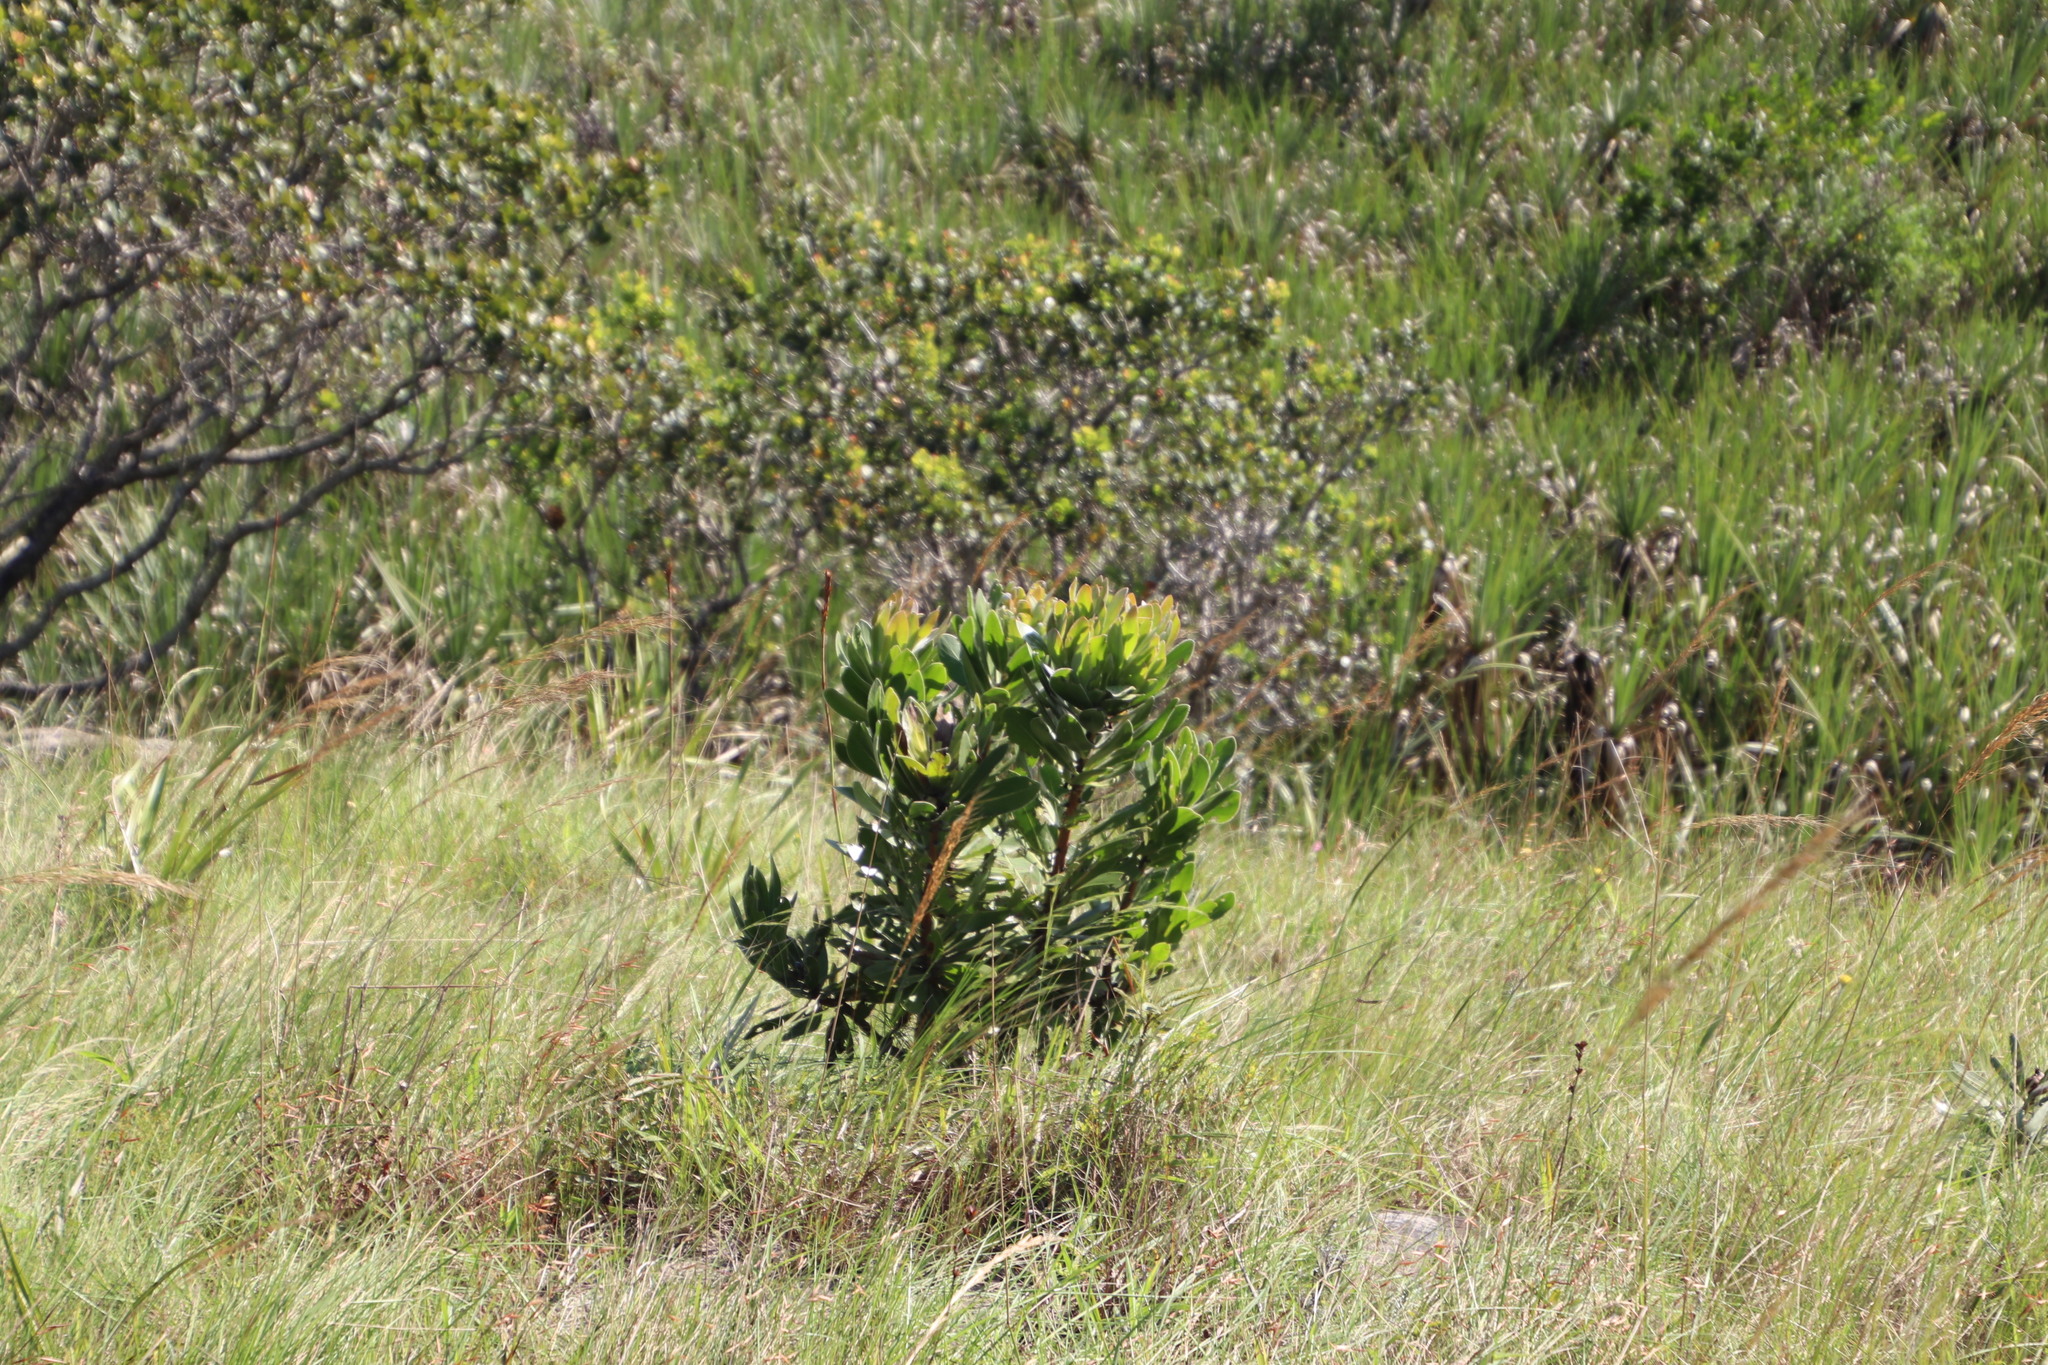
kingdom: Plantae
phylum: Tracheophyta
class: Magnoliopsida
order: Proteales
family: Proteaceae
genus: Protea
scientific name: Protea roupelliae
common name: Silver sugarbush
